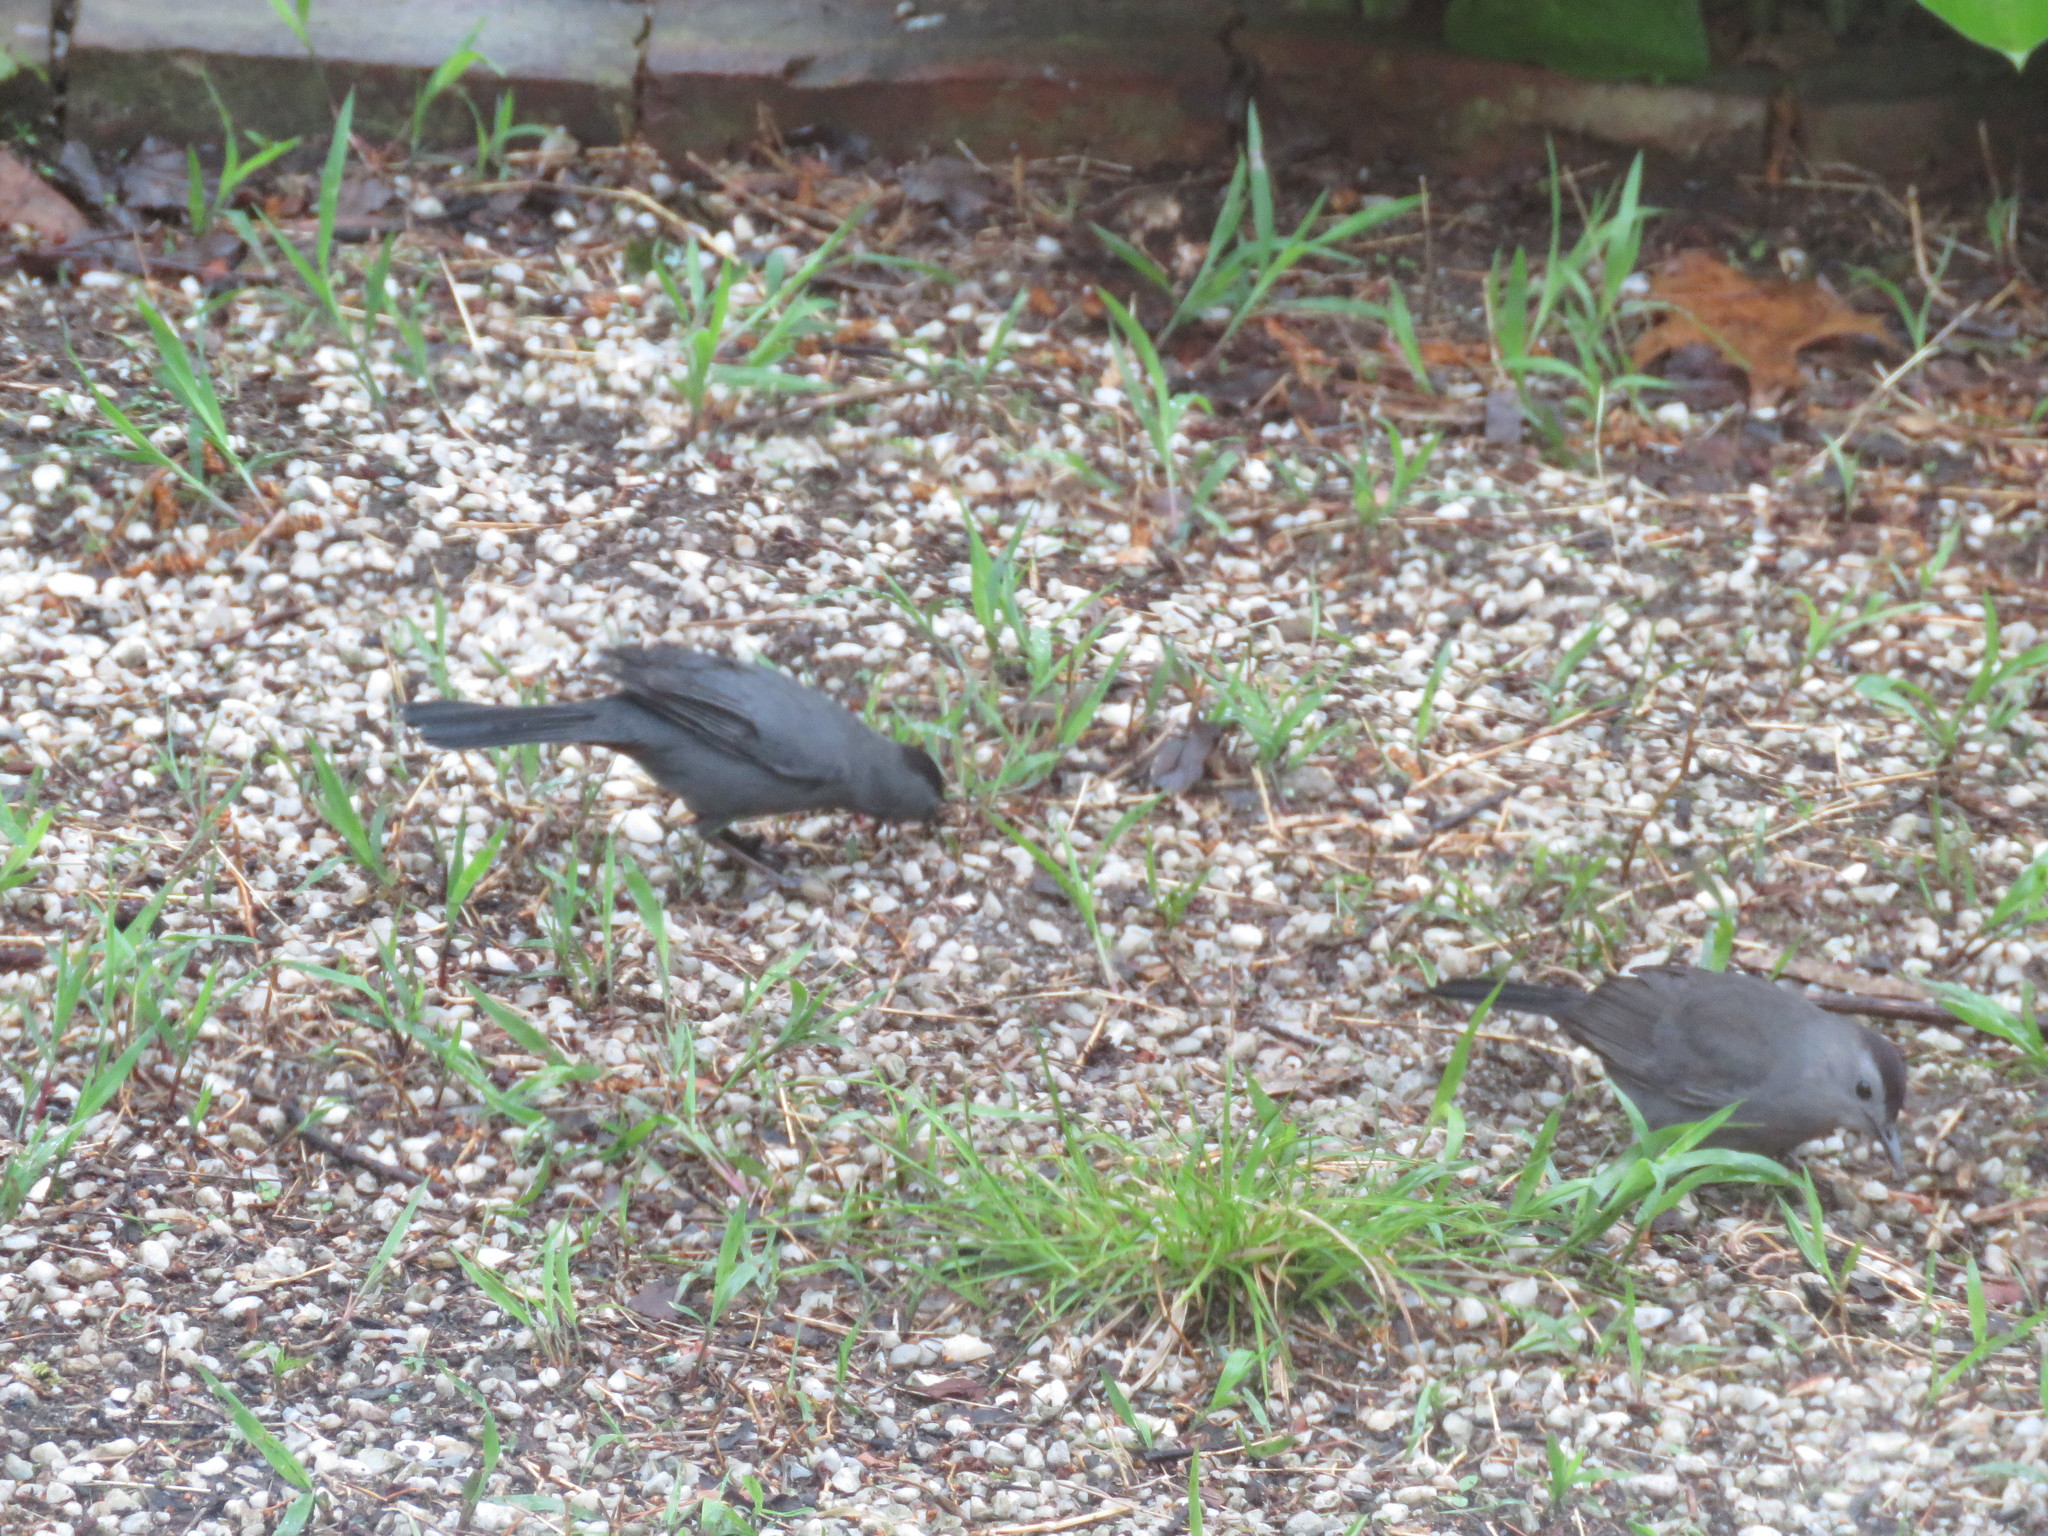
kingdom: Animalia
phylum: Chordata
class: Aves
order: Passeriformes
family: Mimidae
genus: Dumetella
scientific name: Dumetella carolinensis
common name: Gray catbird
